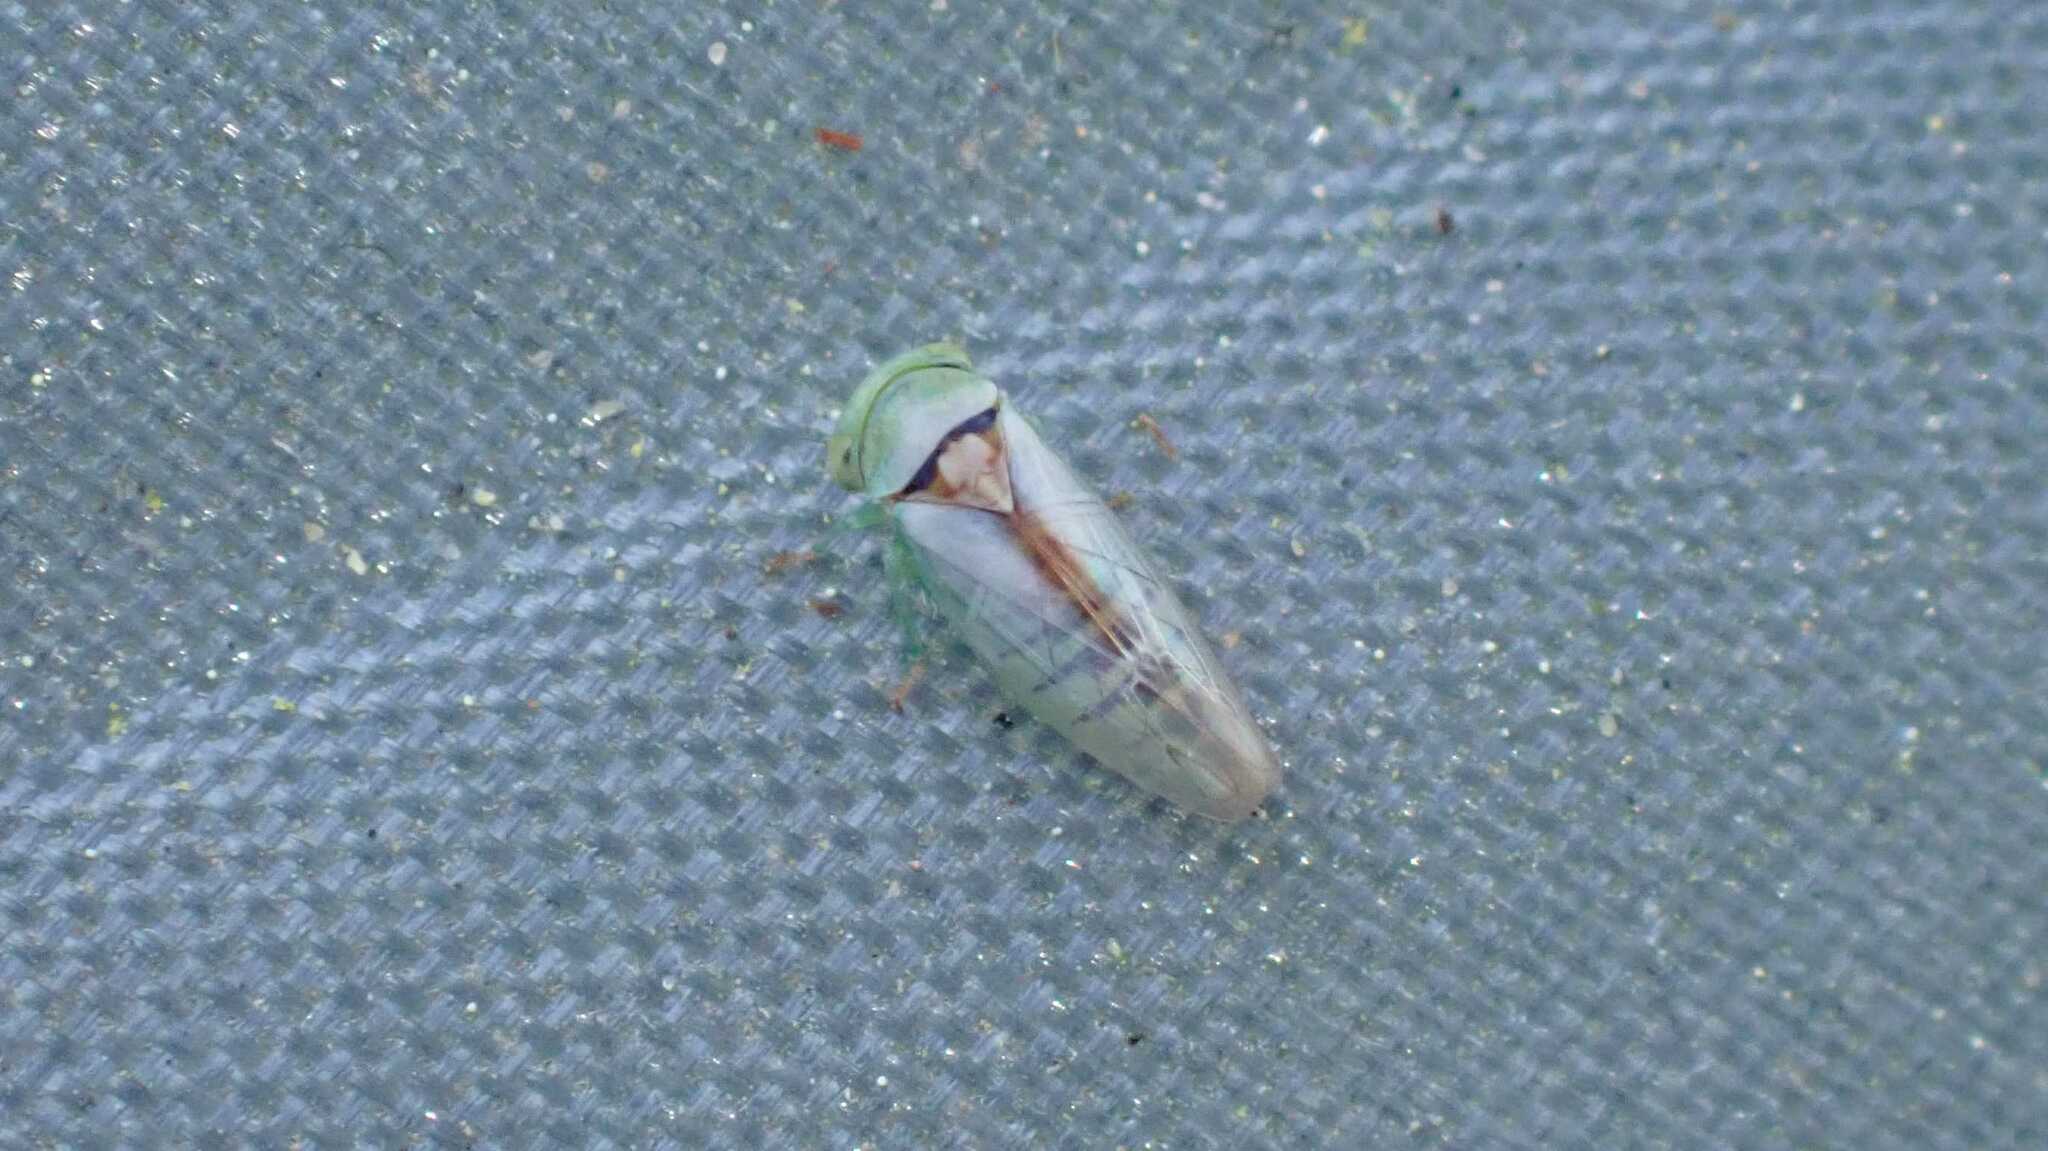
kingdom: Animalia
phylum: Arthropoda
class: Insecta
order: Hemiptera
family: Cicadellidae
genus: Viridicerus
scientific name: Viridicerus ustulatus
